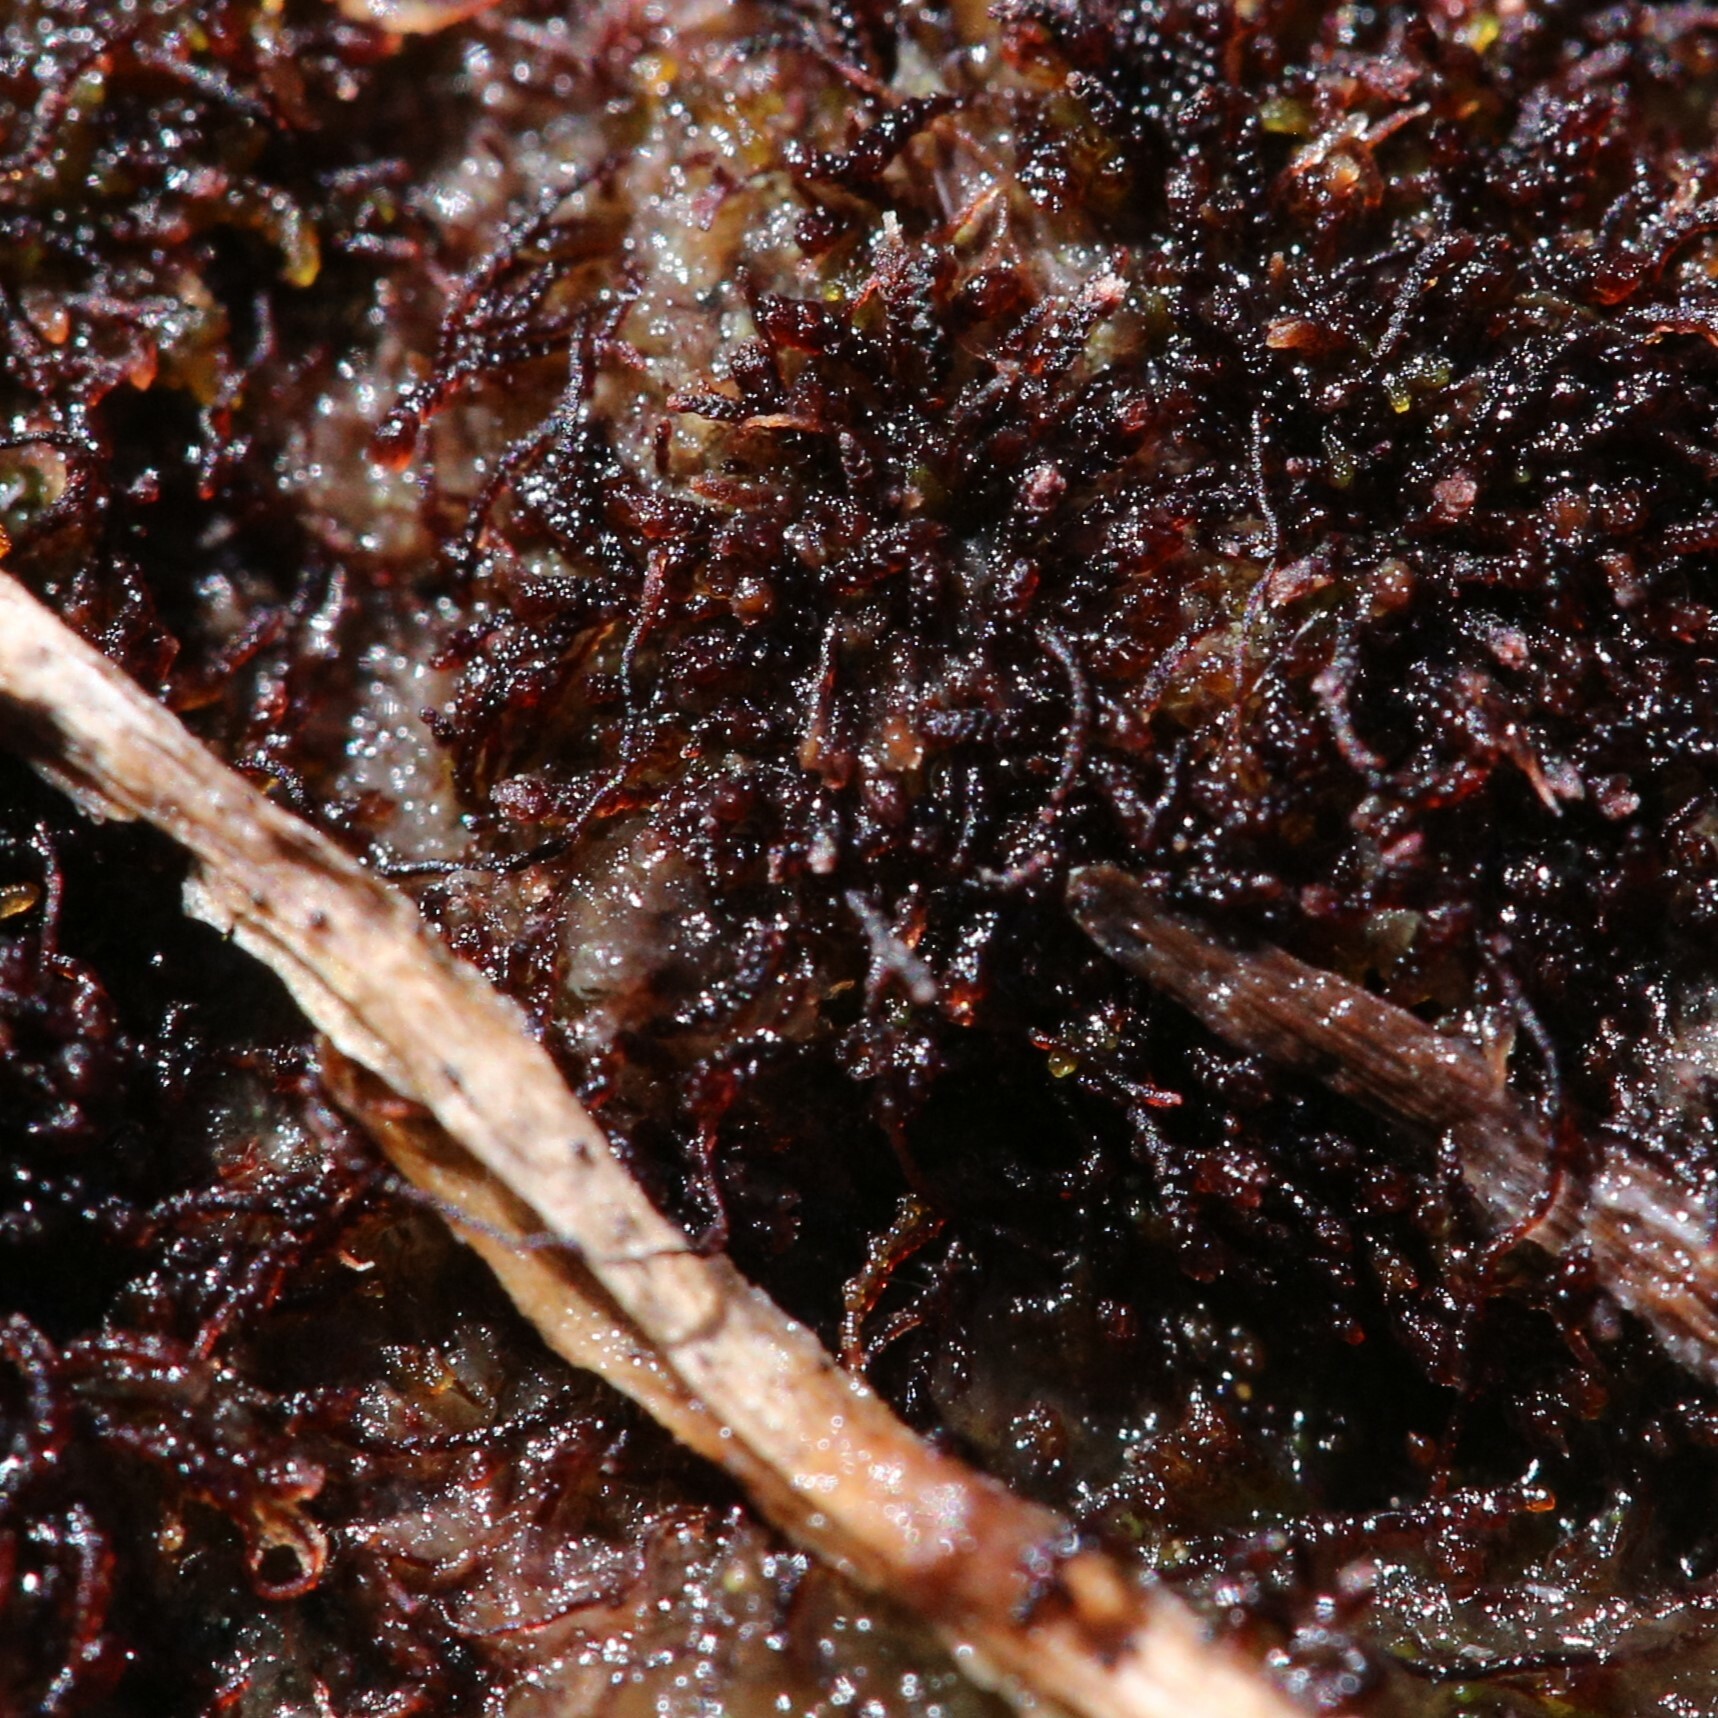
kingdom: Plantae
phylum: Marchantiophyta
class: Jungermanniopsida
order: Jungermanniales
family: Cephaloziellaceae
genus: Cephalomitrion
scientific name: Cephalomitrion aterrimum
